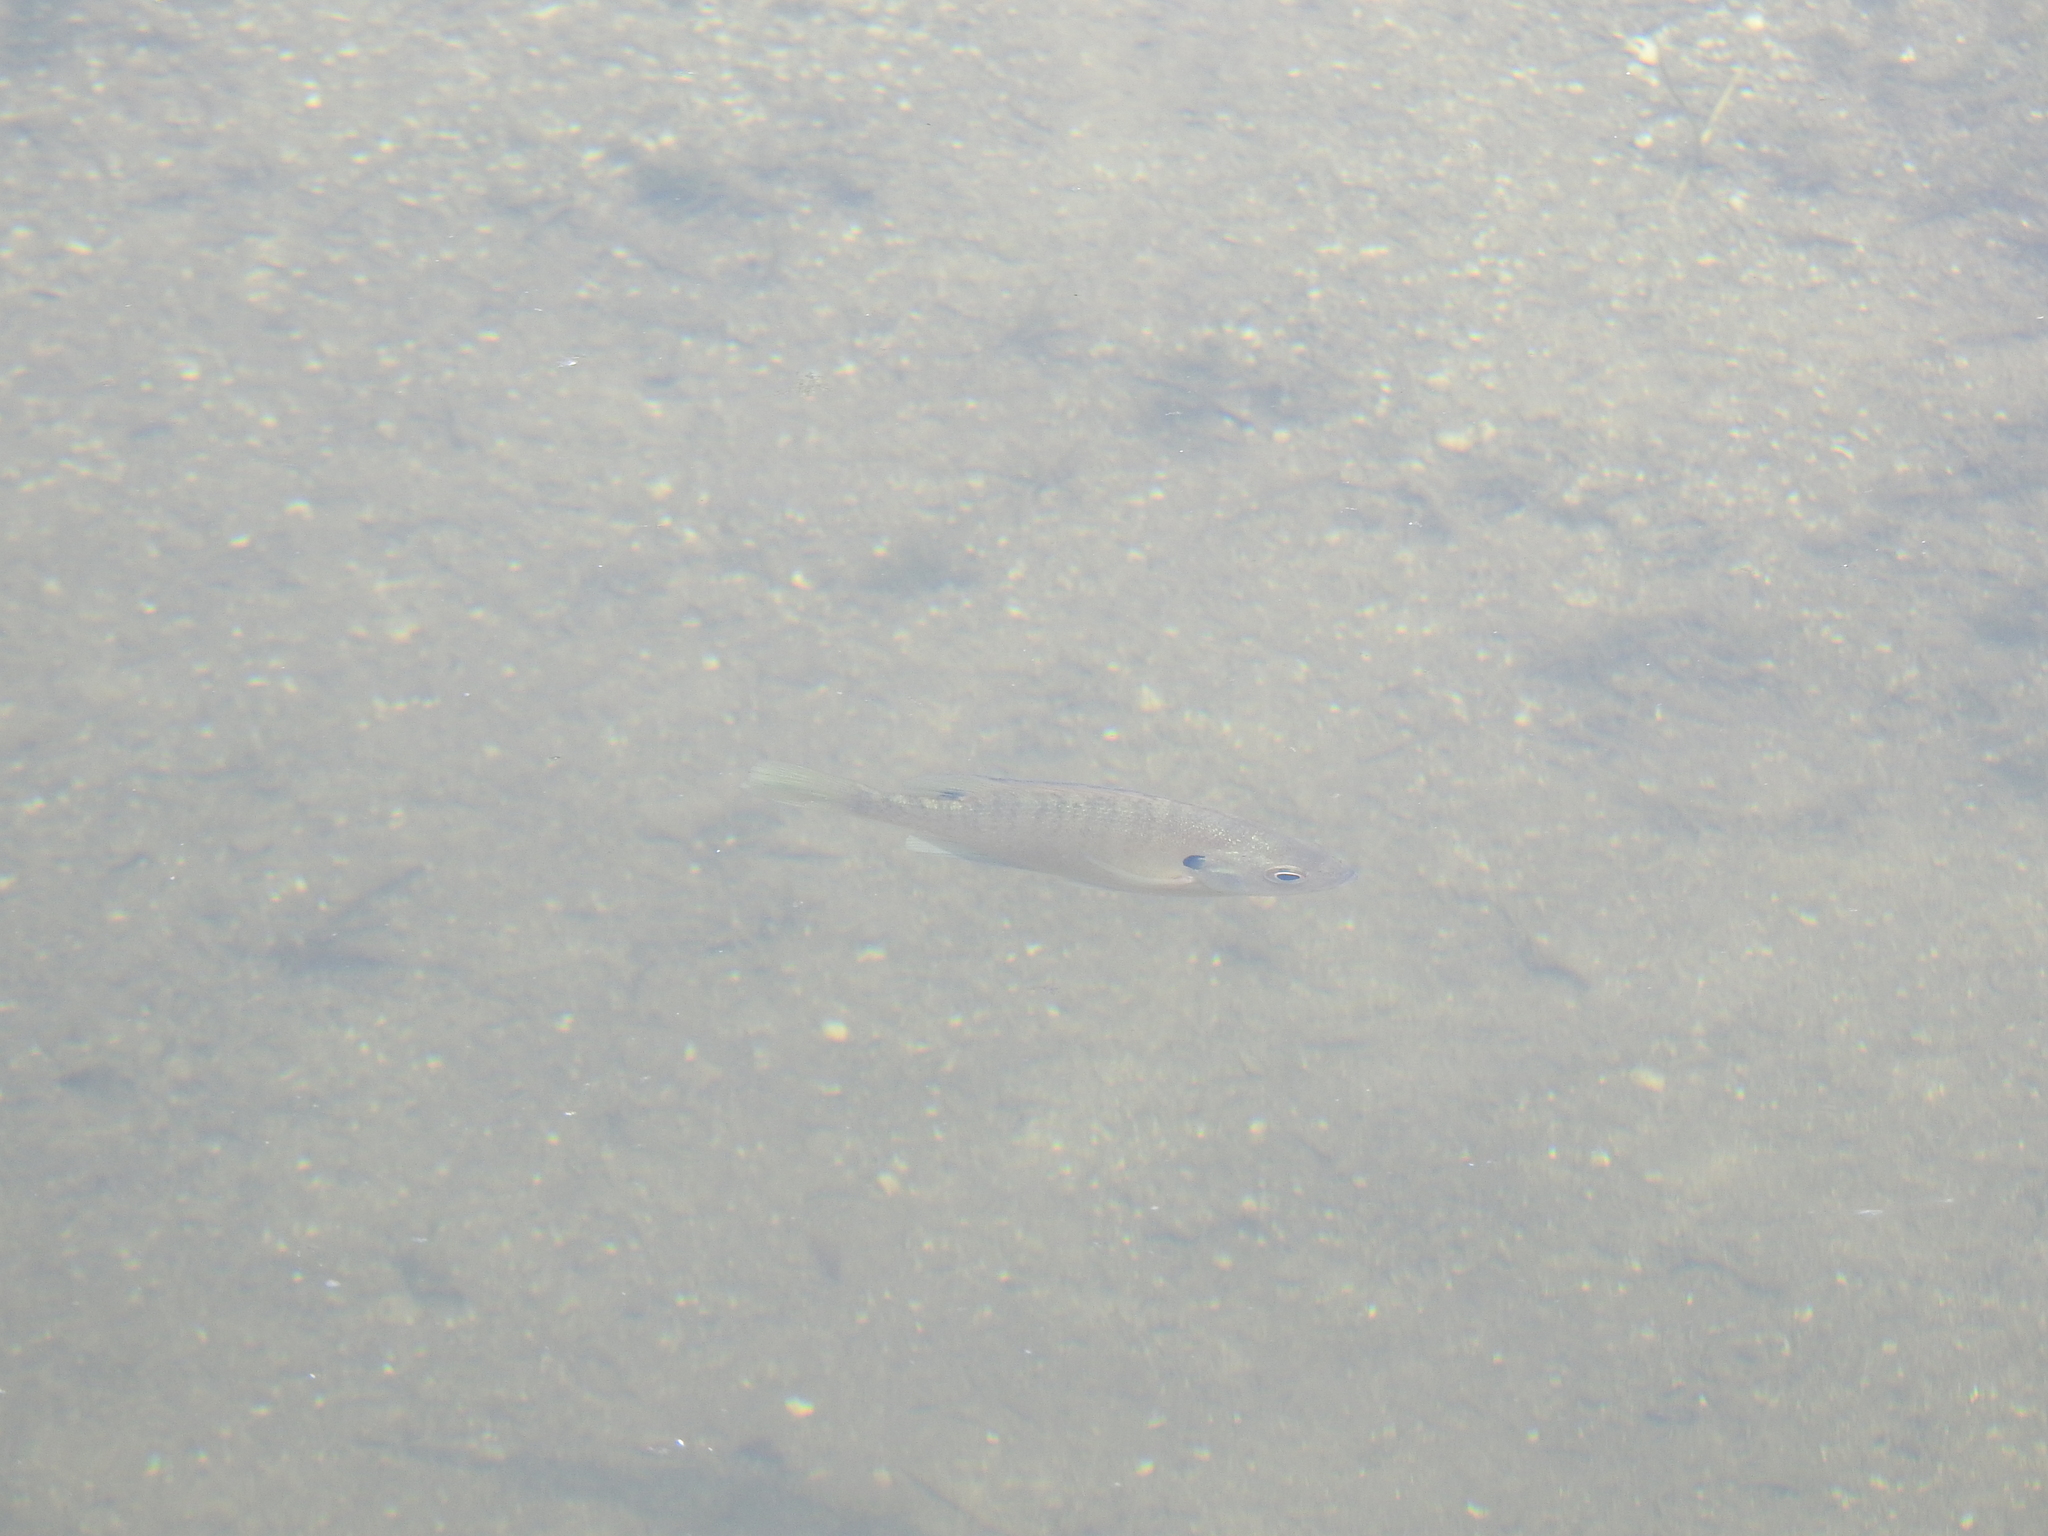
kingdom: Animalia
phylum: Chordata
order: Perciformes
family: Centrarchidae
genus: Lepomis
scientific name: Lepomis macrochirus
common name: Bluegill
